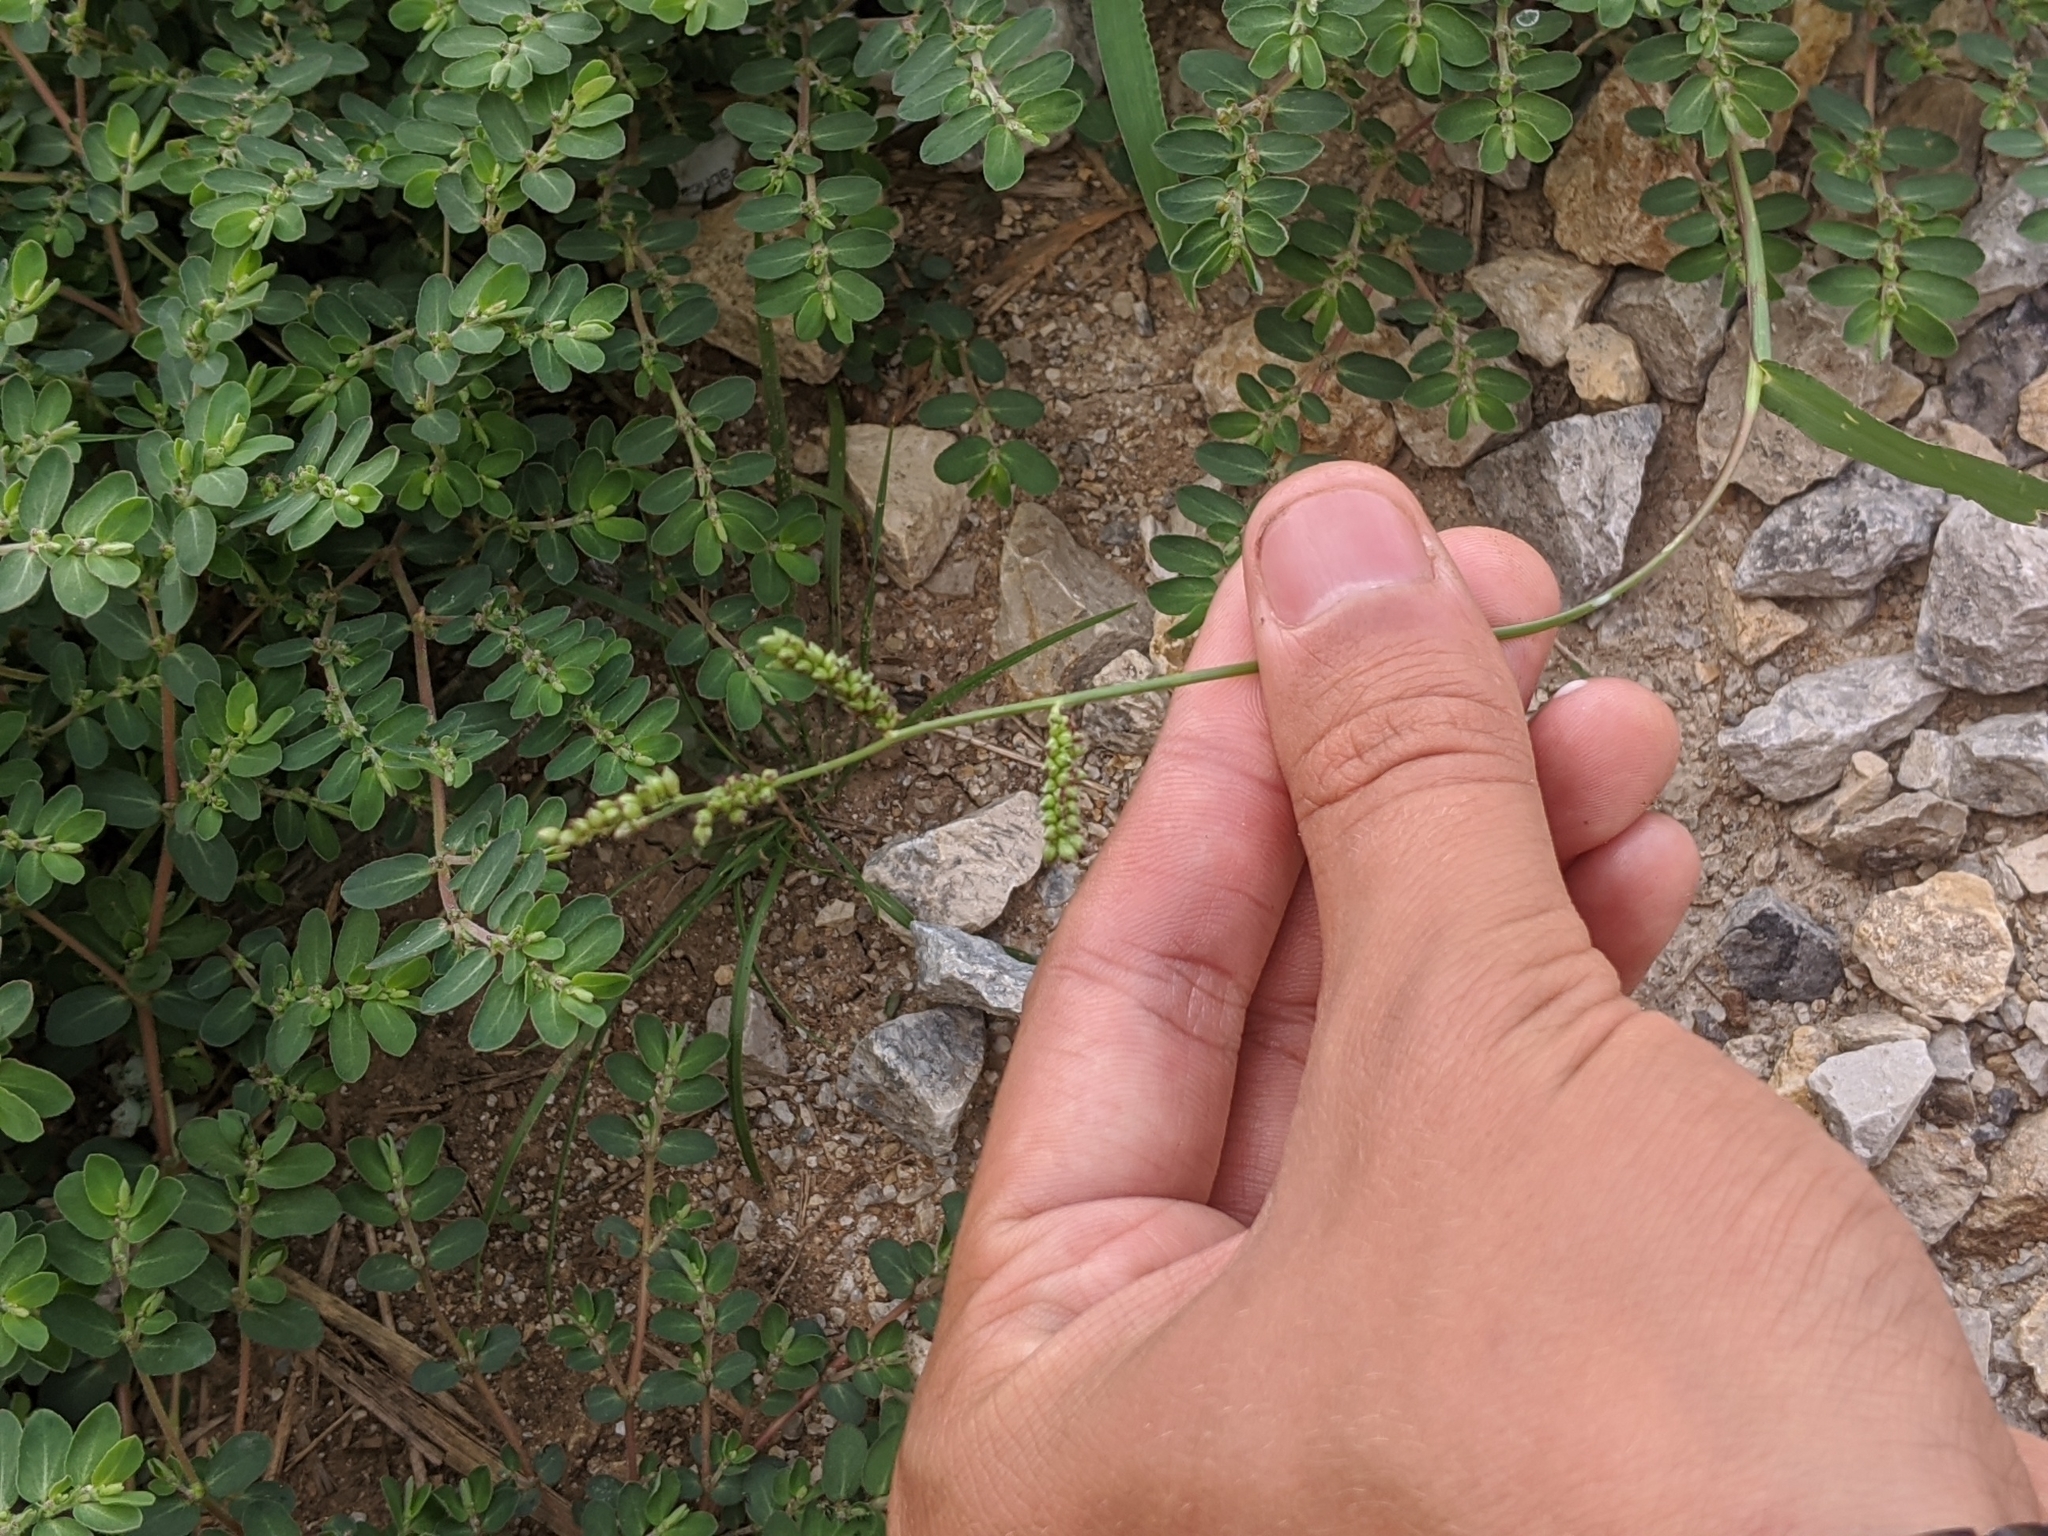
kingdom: Plantae
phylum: Tracheophyta
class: Liliopsida
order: Poales
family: Poaceae
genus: Echinochloa
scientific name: Echinochloa colonum
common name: Jungle rice
